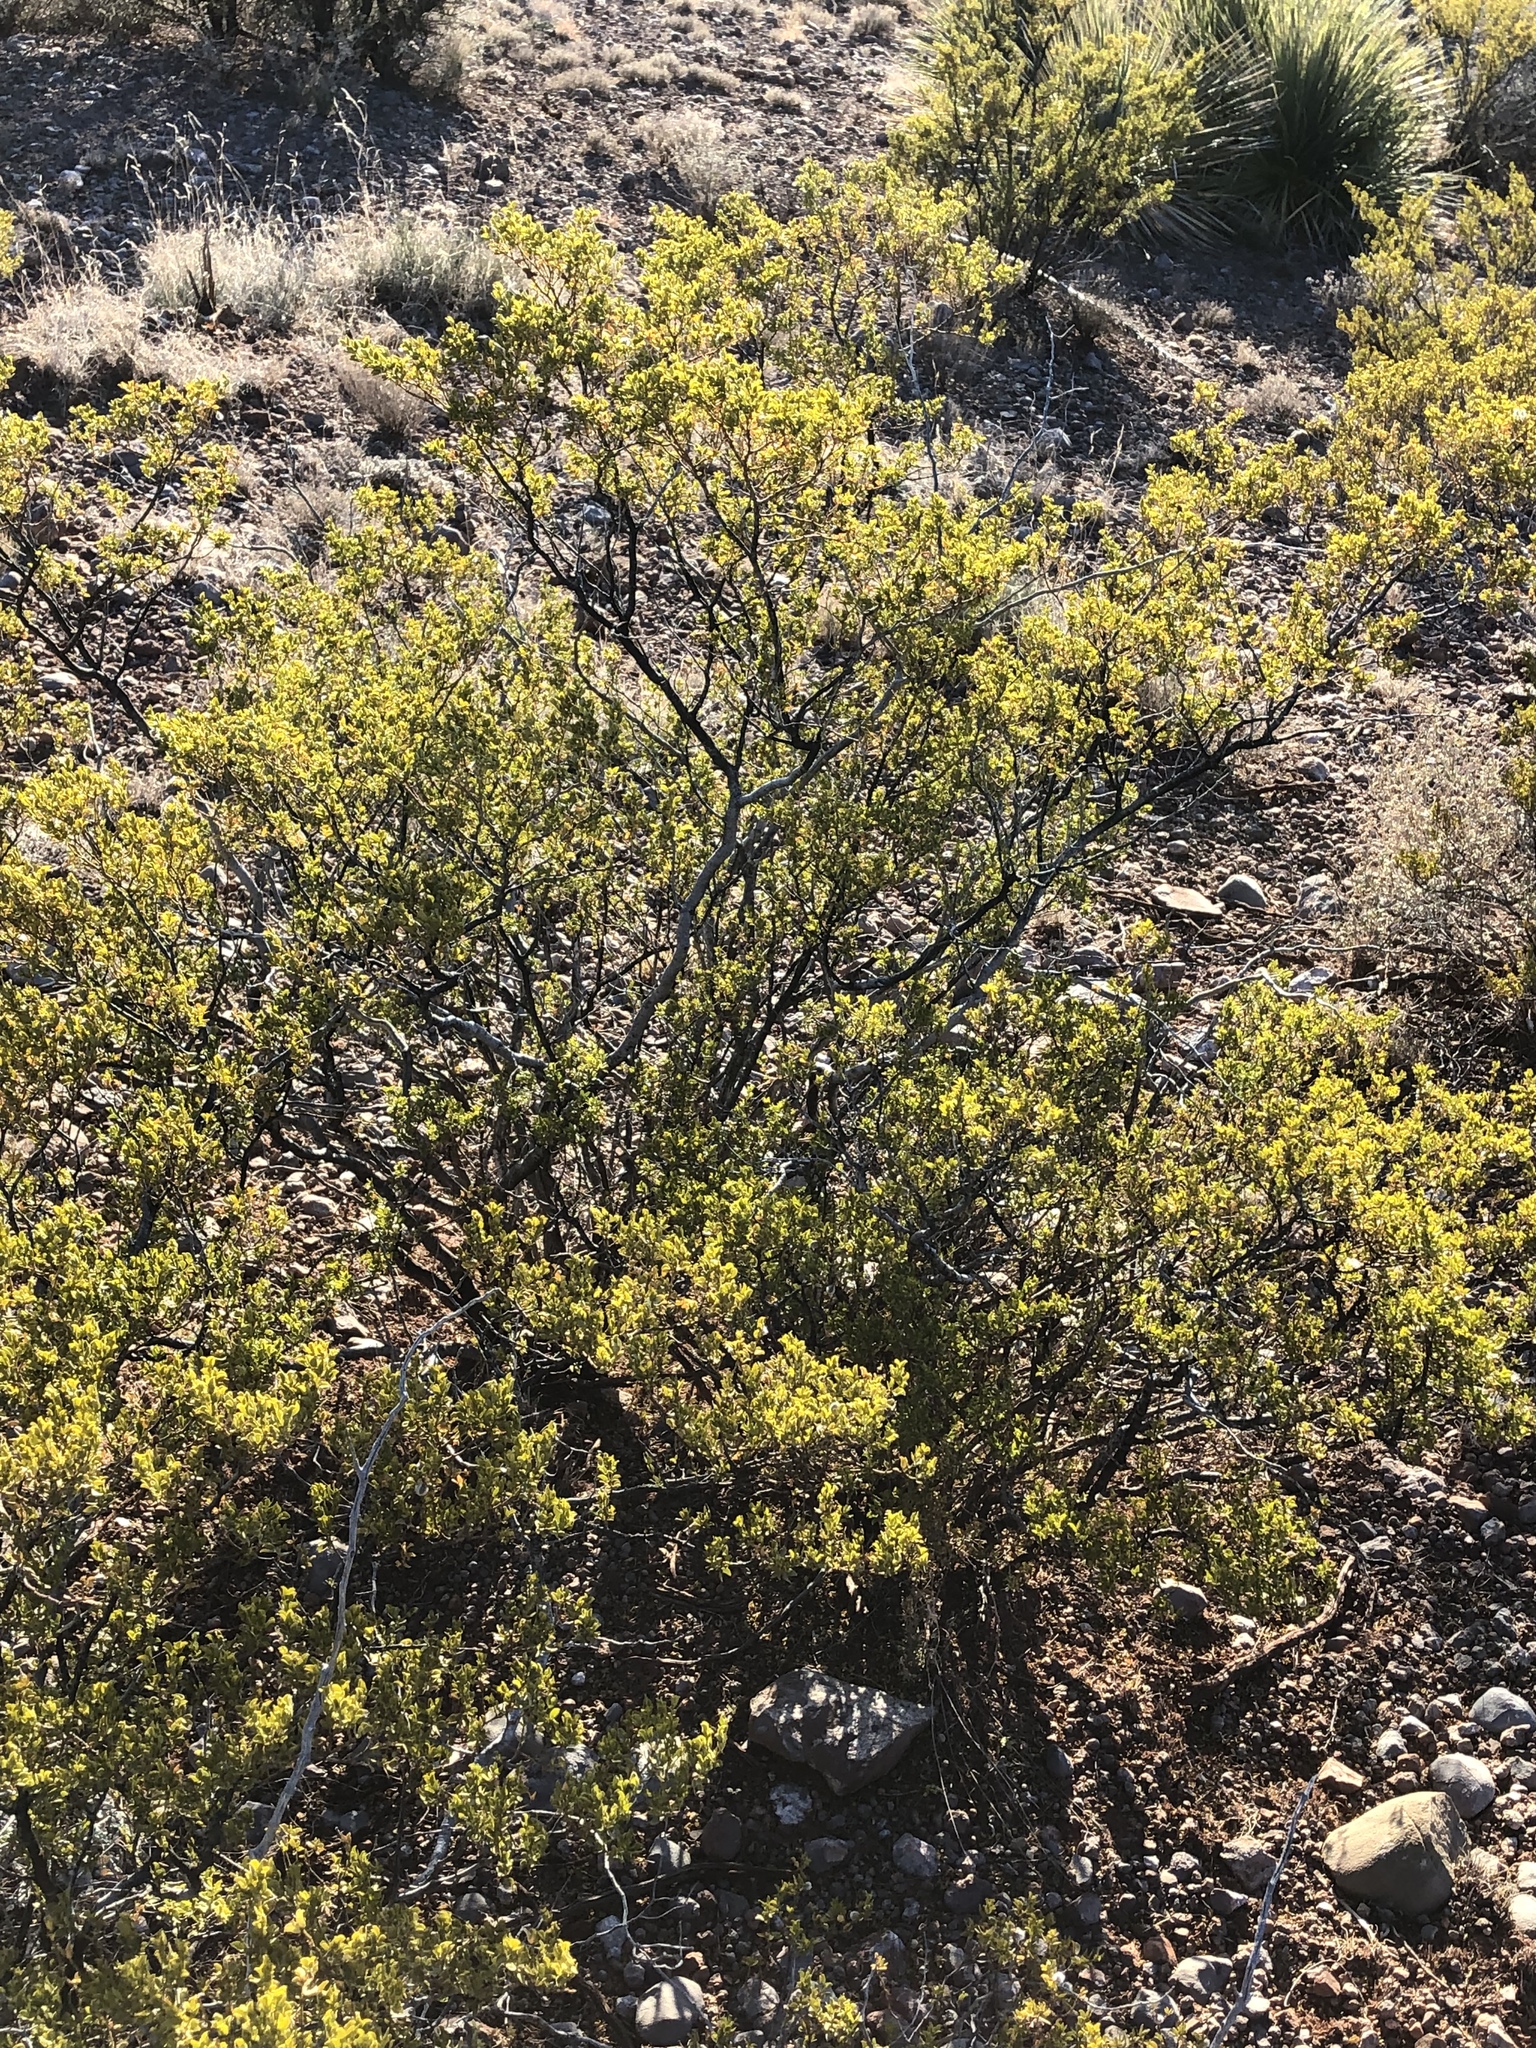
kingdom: Plantae
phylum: Tracheophyta
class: Magnoliopsida
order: Zygophyllales
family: Zygophyllaceae
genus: Larrea
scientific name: Larrea tridentata
